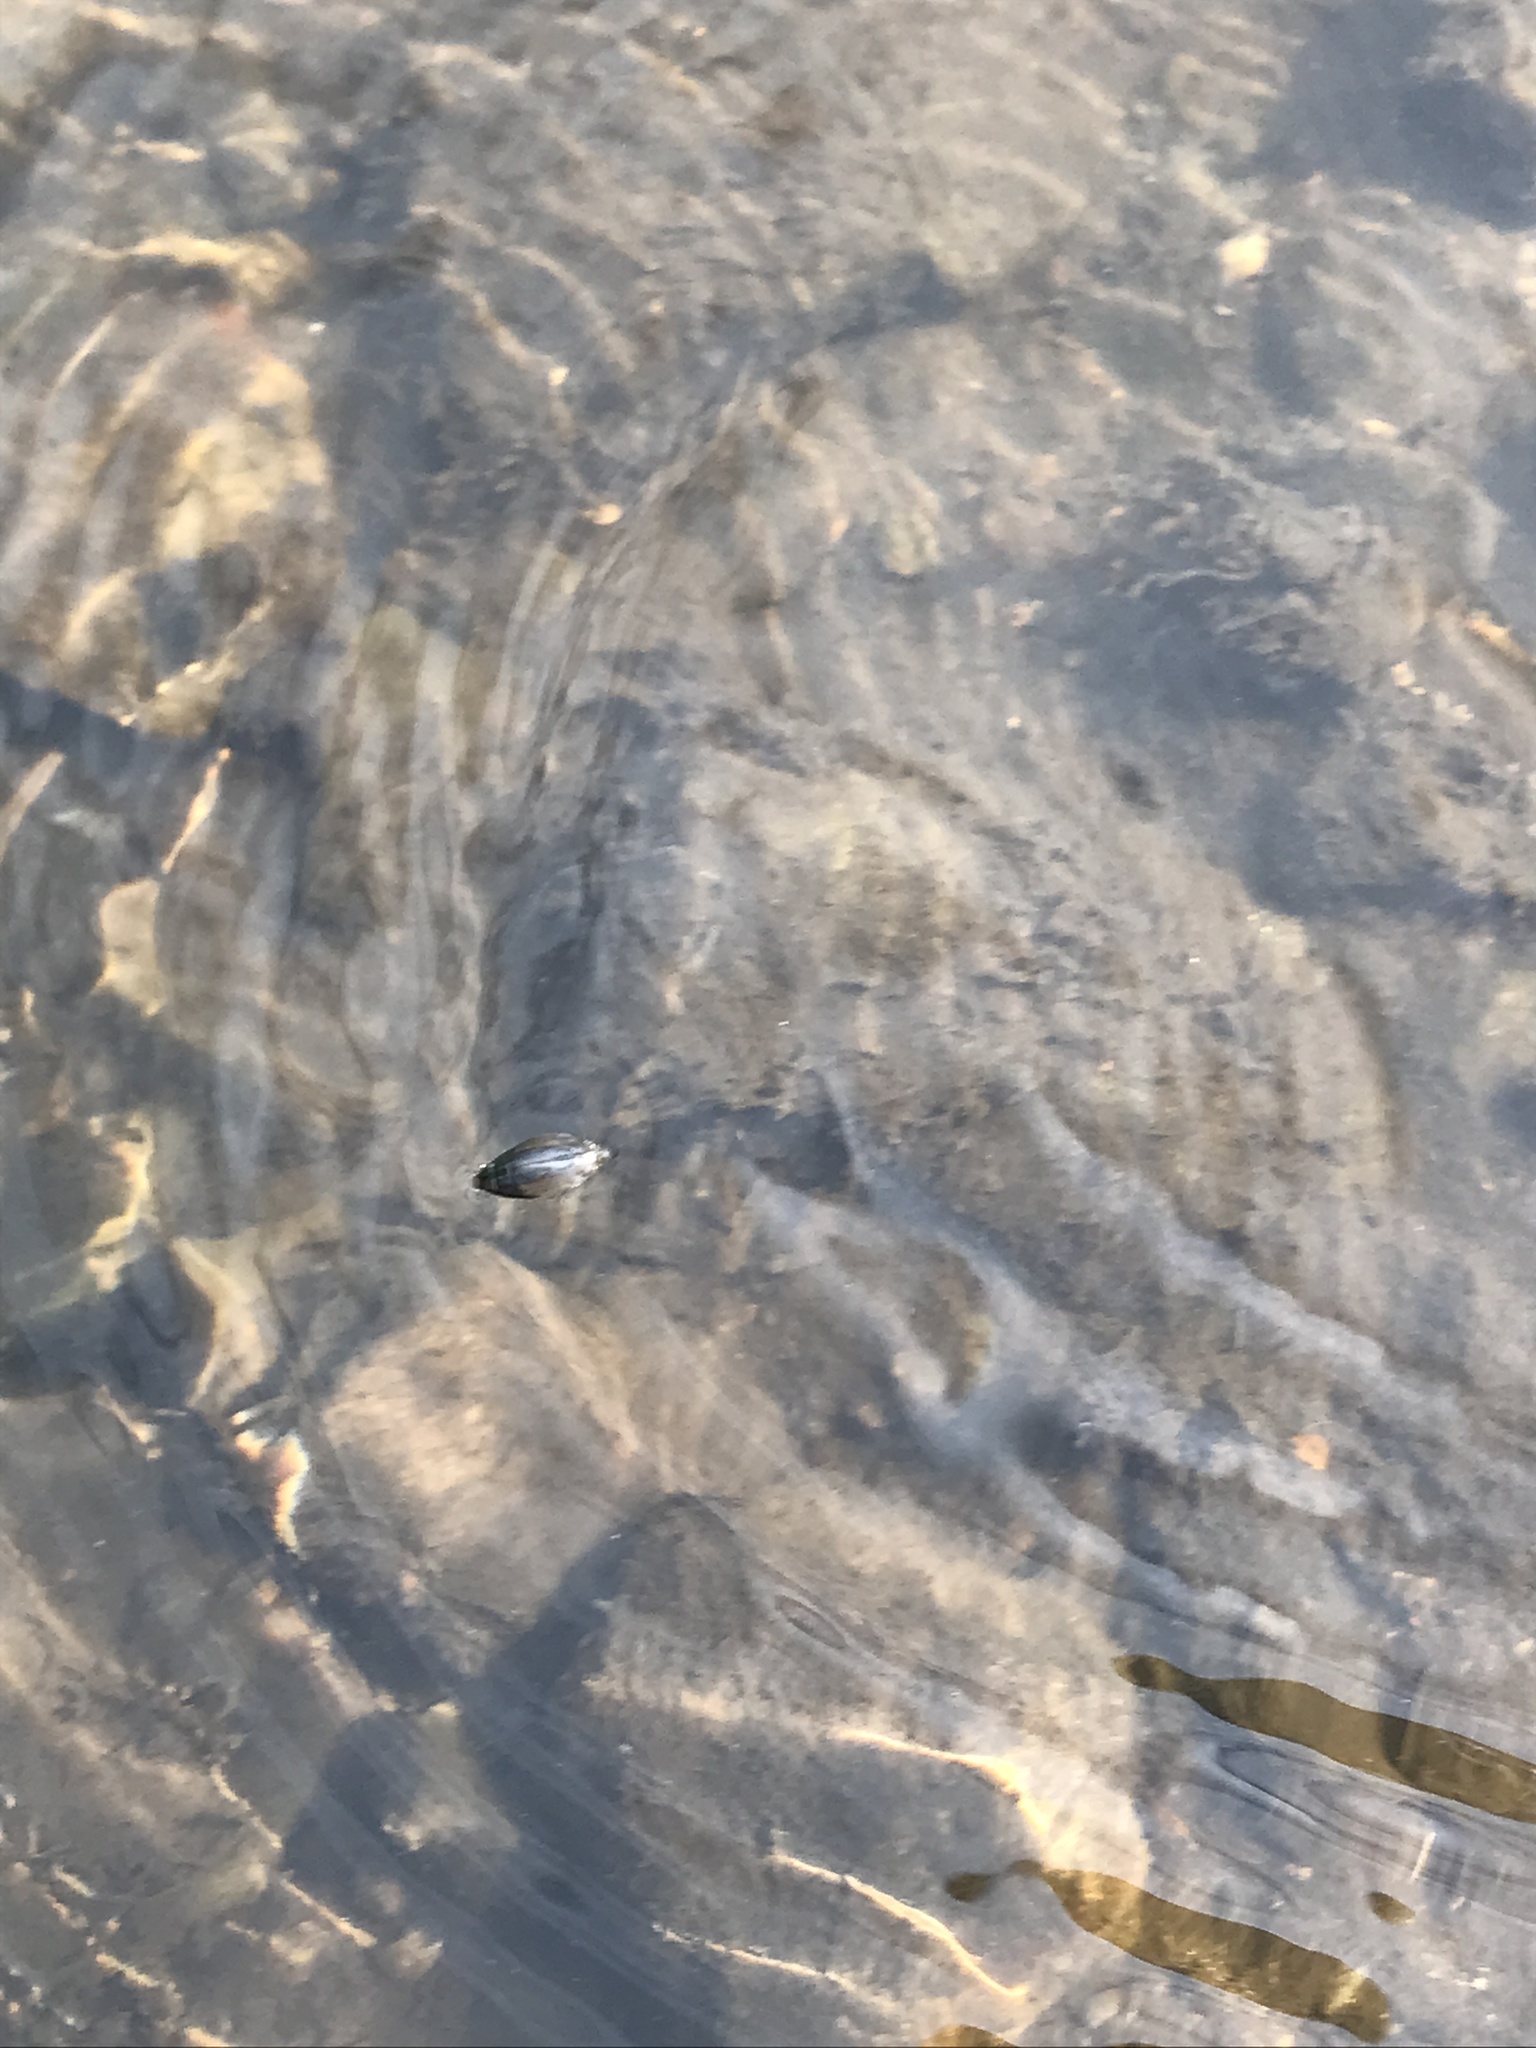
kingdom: Animalia
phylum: Arthropoda
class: Insecta
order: Coleoptera
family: Gyrinidae
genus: Dineutus
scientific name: Dineutus
